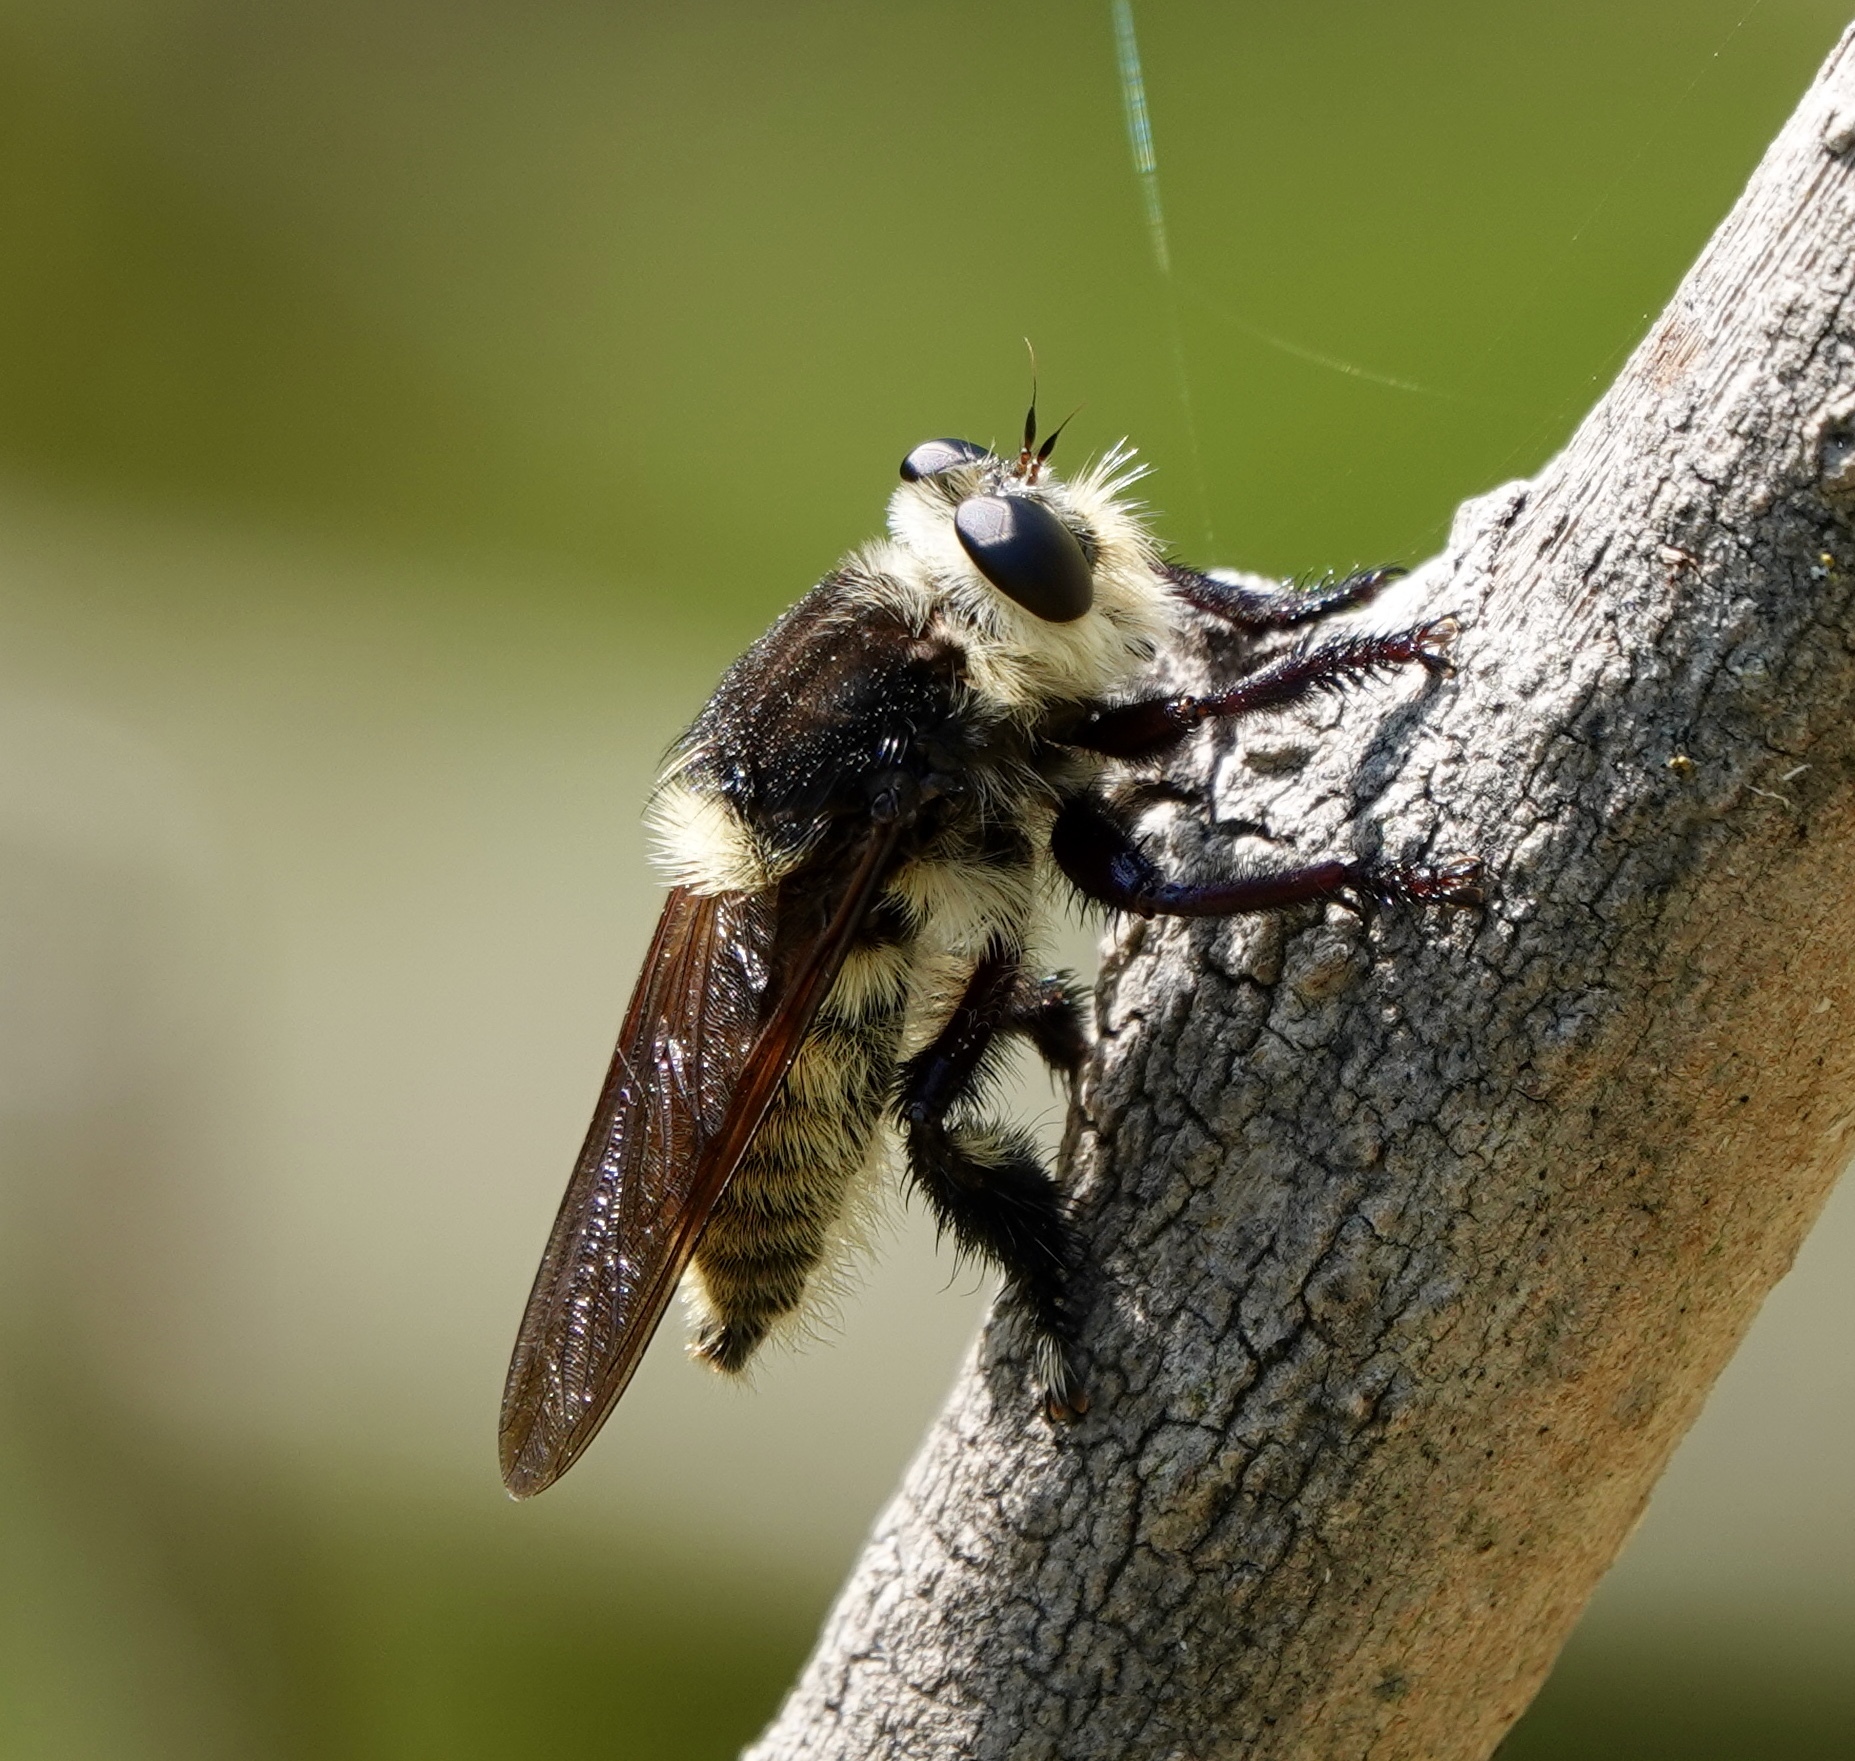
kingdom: Animalia
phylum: Arthropoda
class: Insecta
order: Diptera
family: Asilidae
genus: Mallophora
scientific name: Mallophora fautrix
